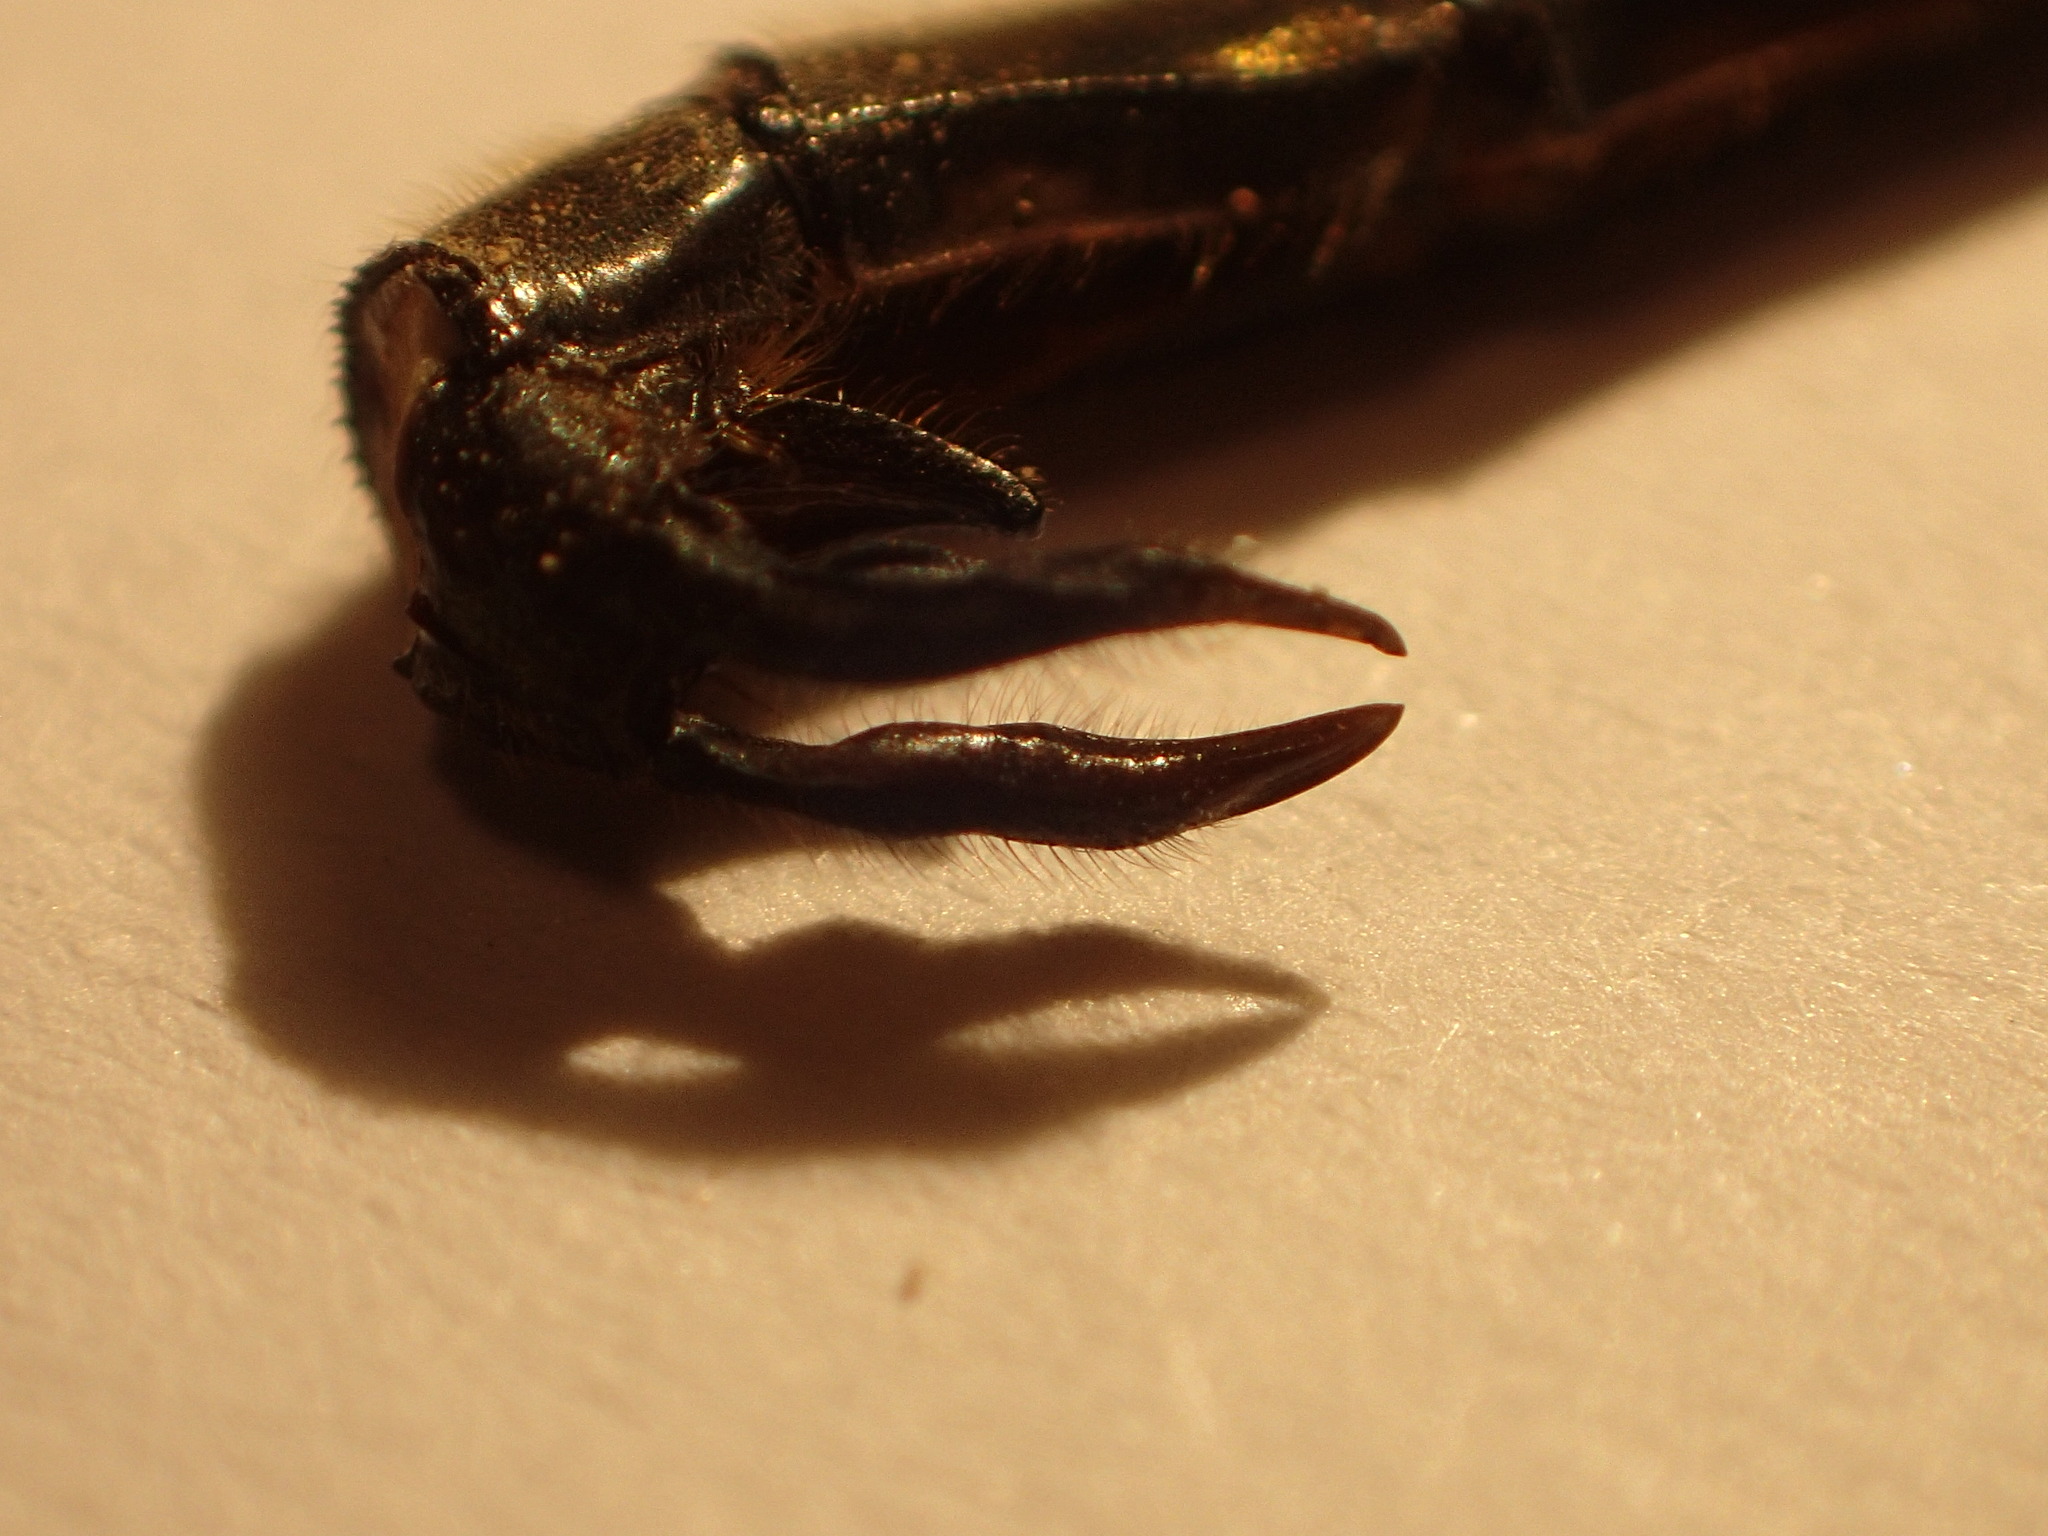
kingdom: Animalia
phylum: Arthropoda
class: Insecta
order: Odonata
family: Corduliidae
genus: Somatochlora
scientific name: Somatochlora franklini
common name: Delicate emerald
